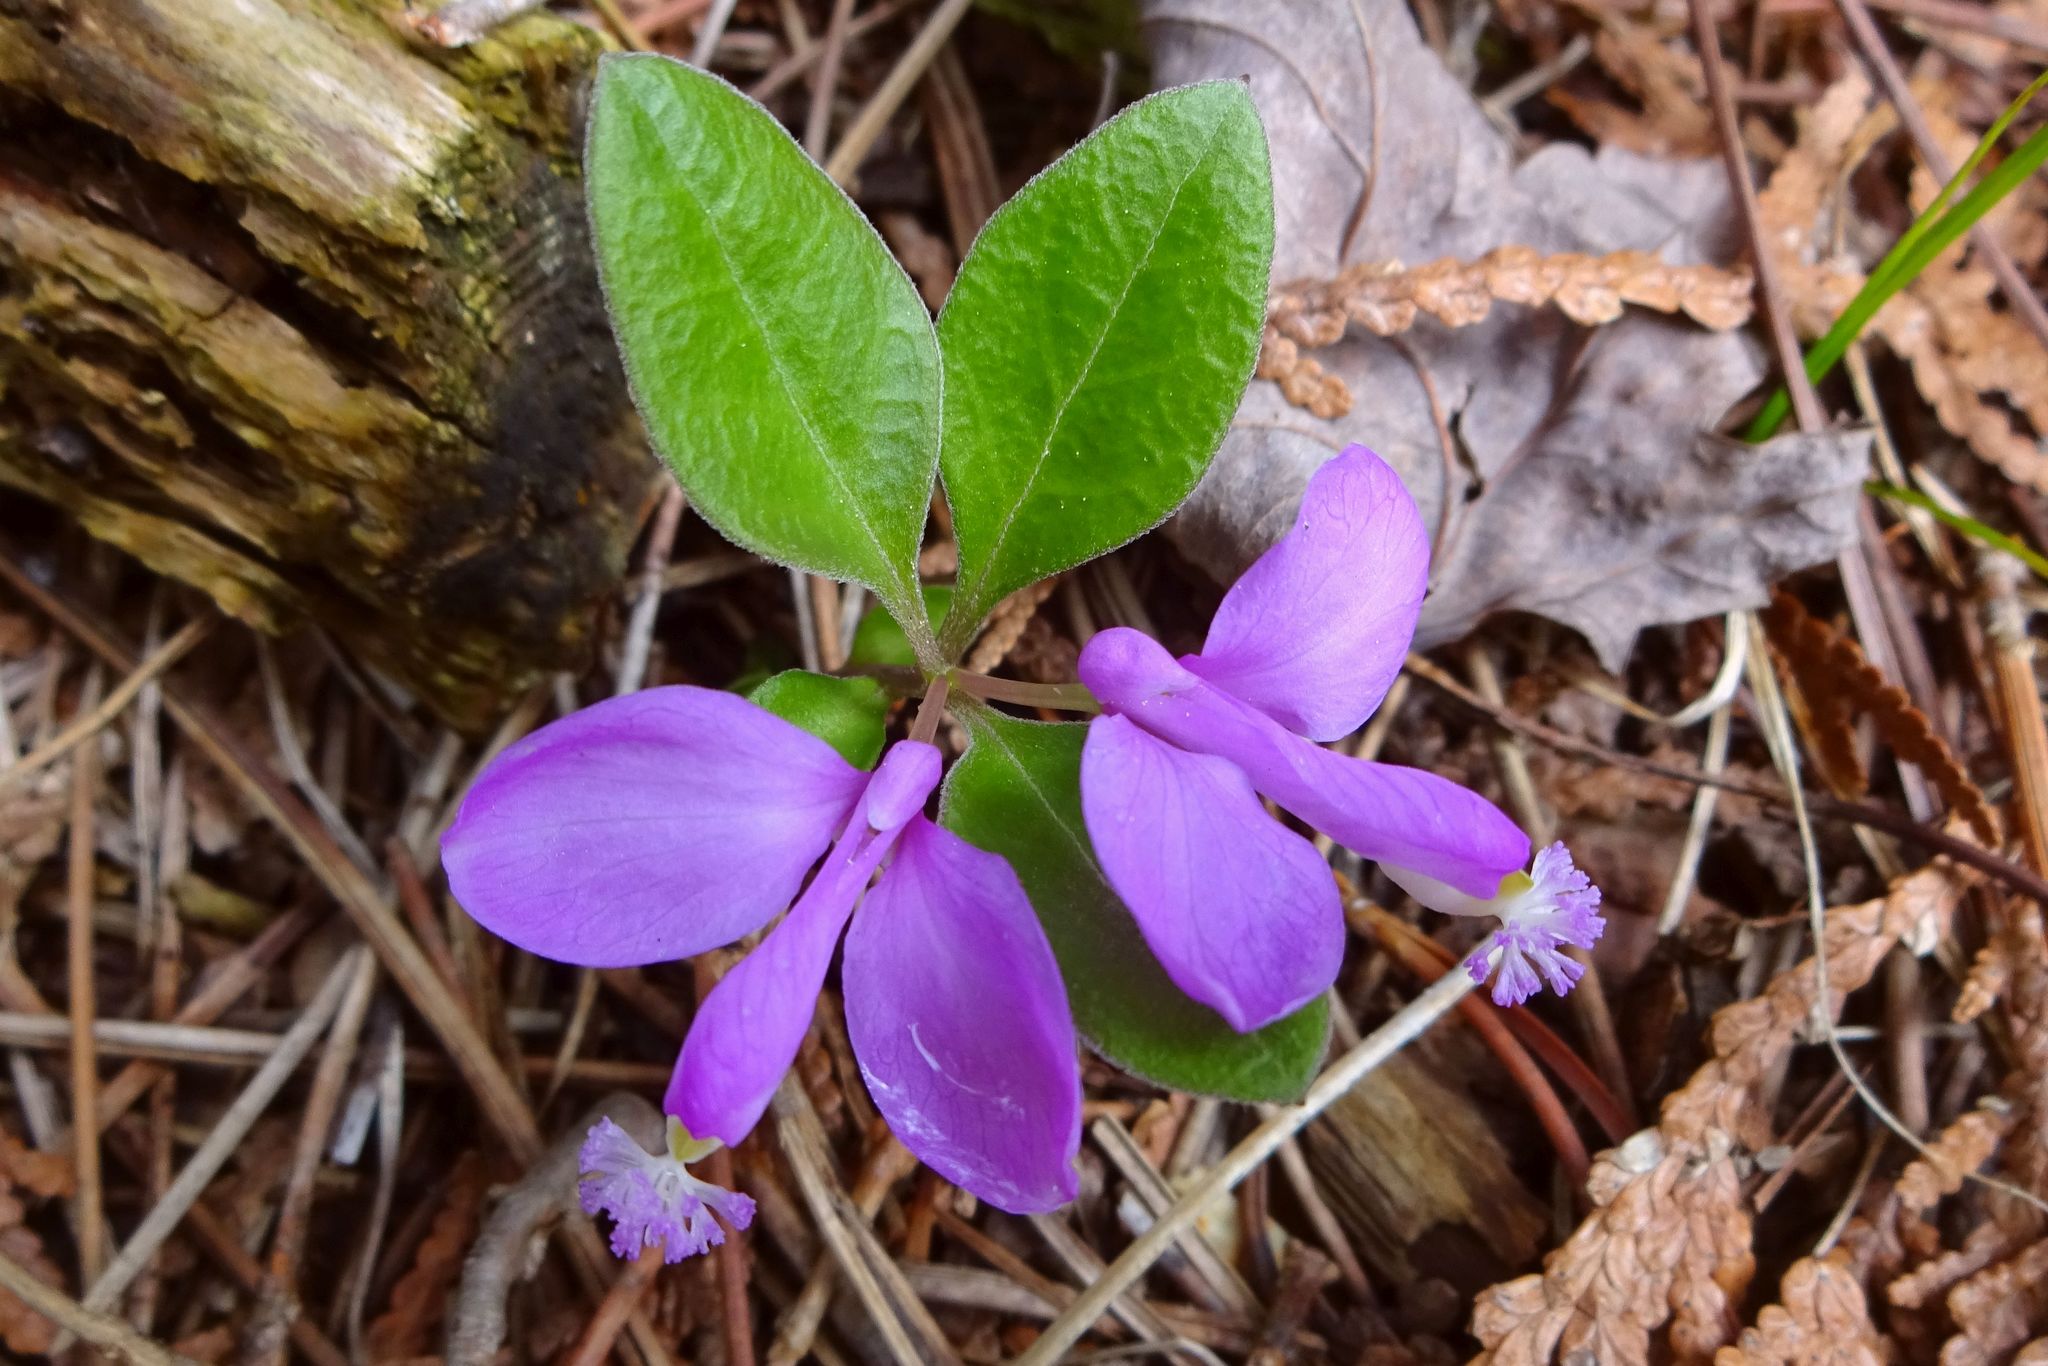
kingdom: Plantae
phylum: Tracheophyta
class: Magnoliopsida
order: Fabales
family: Polygalaceae
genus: Polygaloides
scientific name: Polygaloides paucifolia
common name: Bird-on-the-wing
